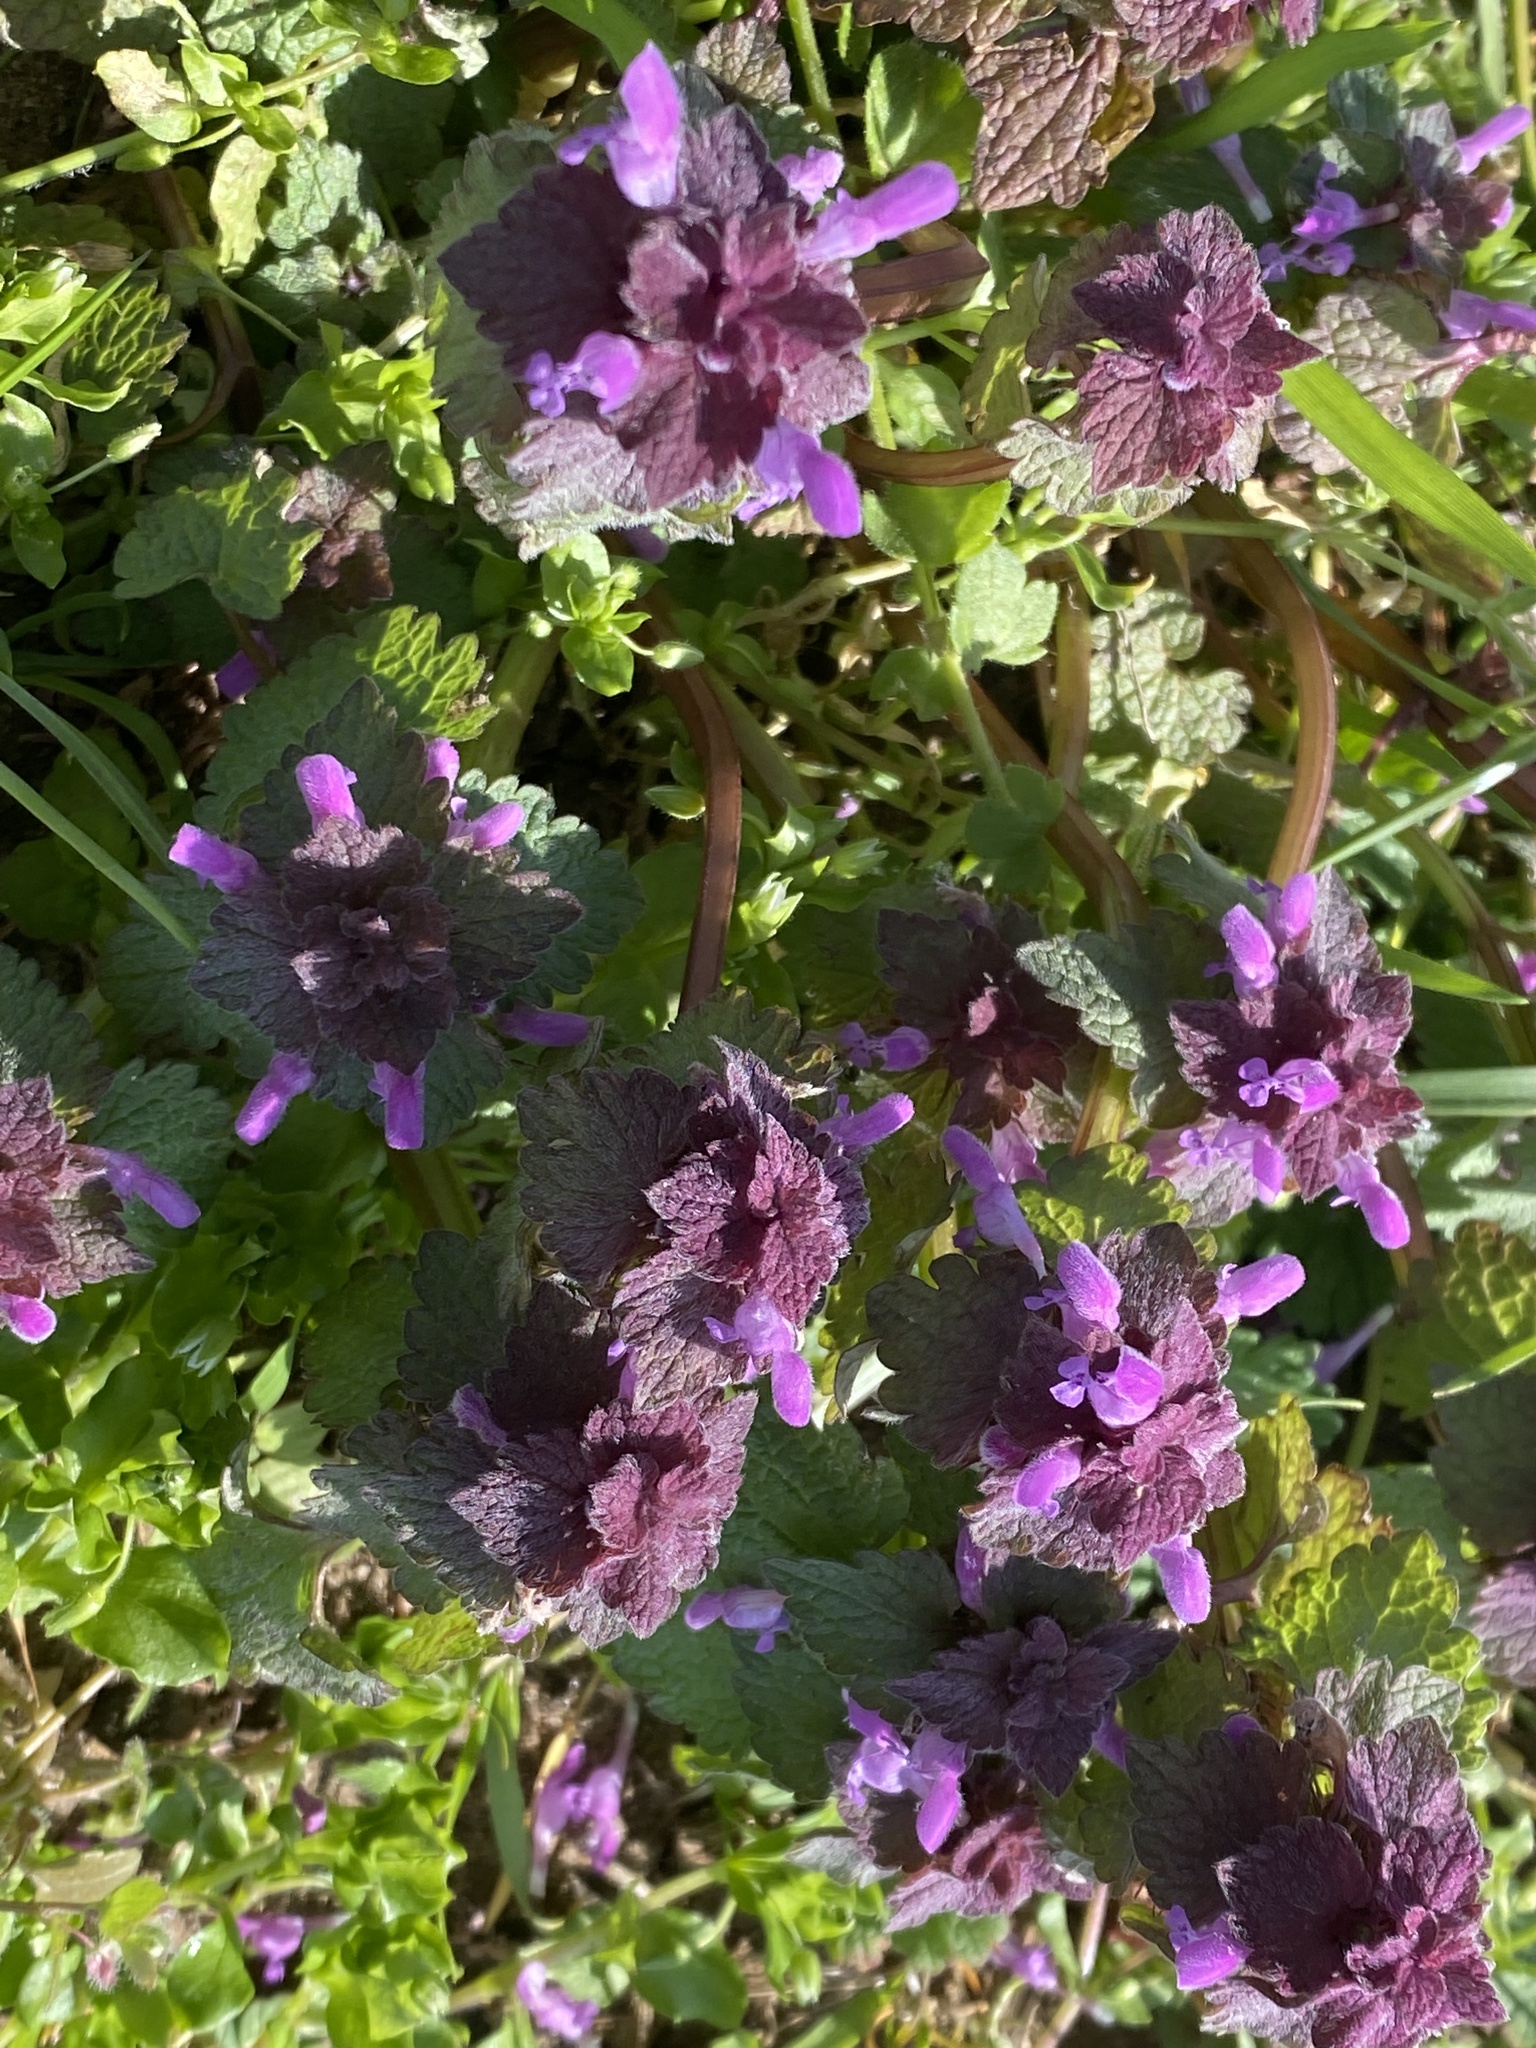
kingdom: Plantae
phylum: Tracheophyta
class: Magnoliopsida
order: Lamiales
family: Lamiaceae
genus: Lamium
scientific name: Lamium purpureum
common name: Red dead-nettle
